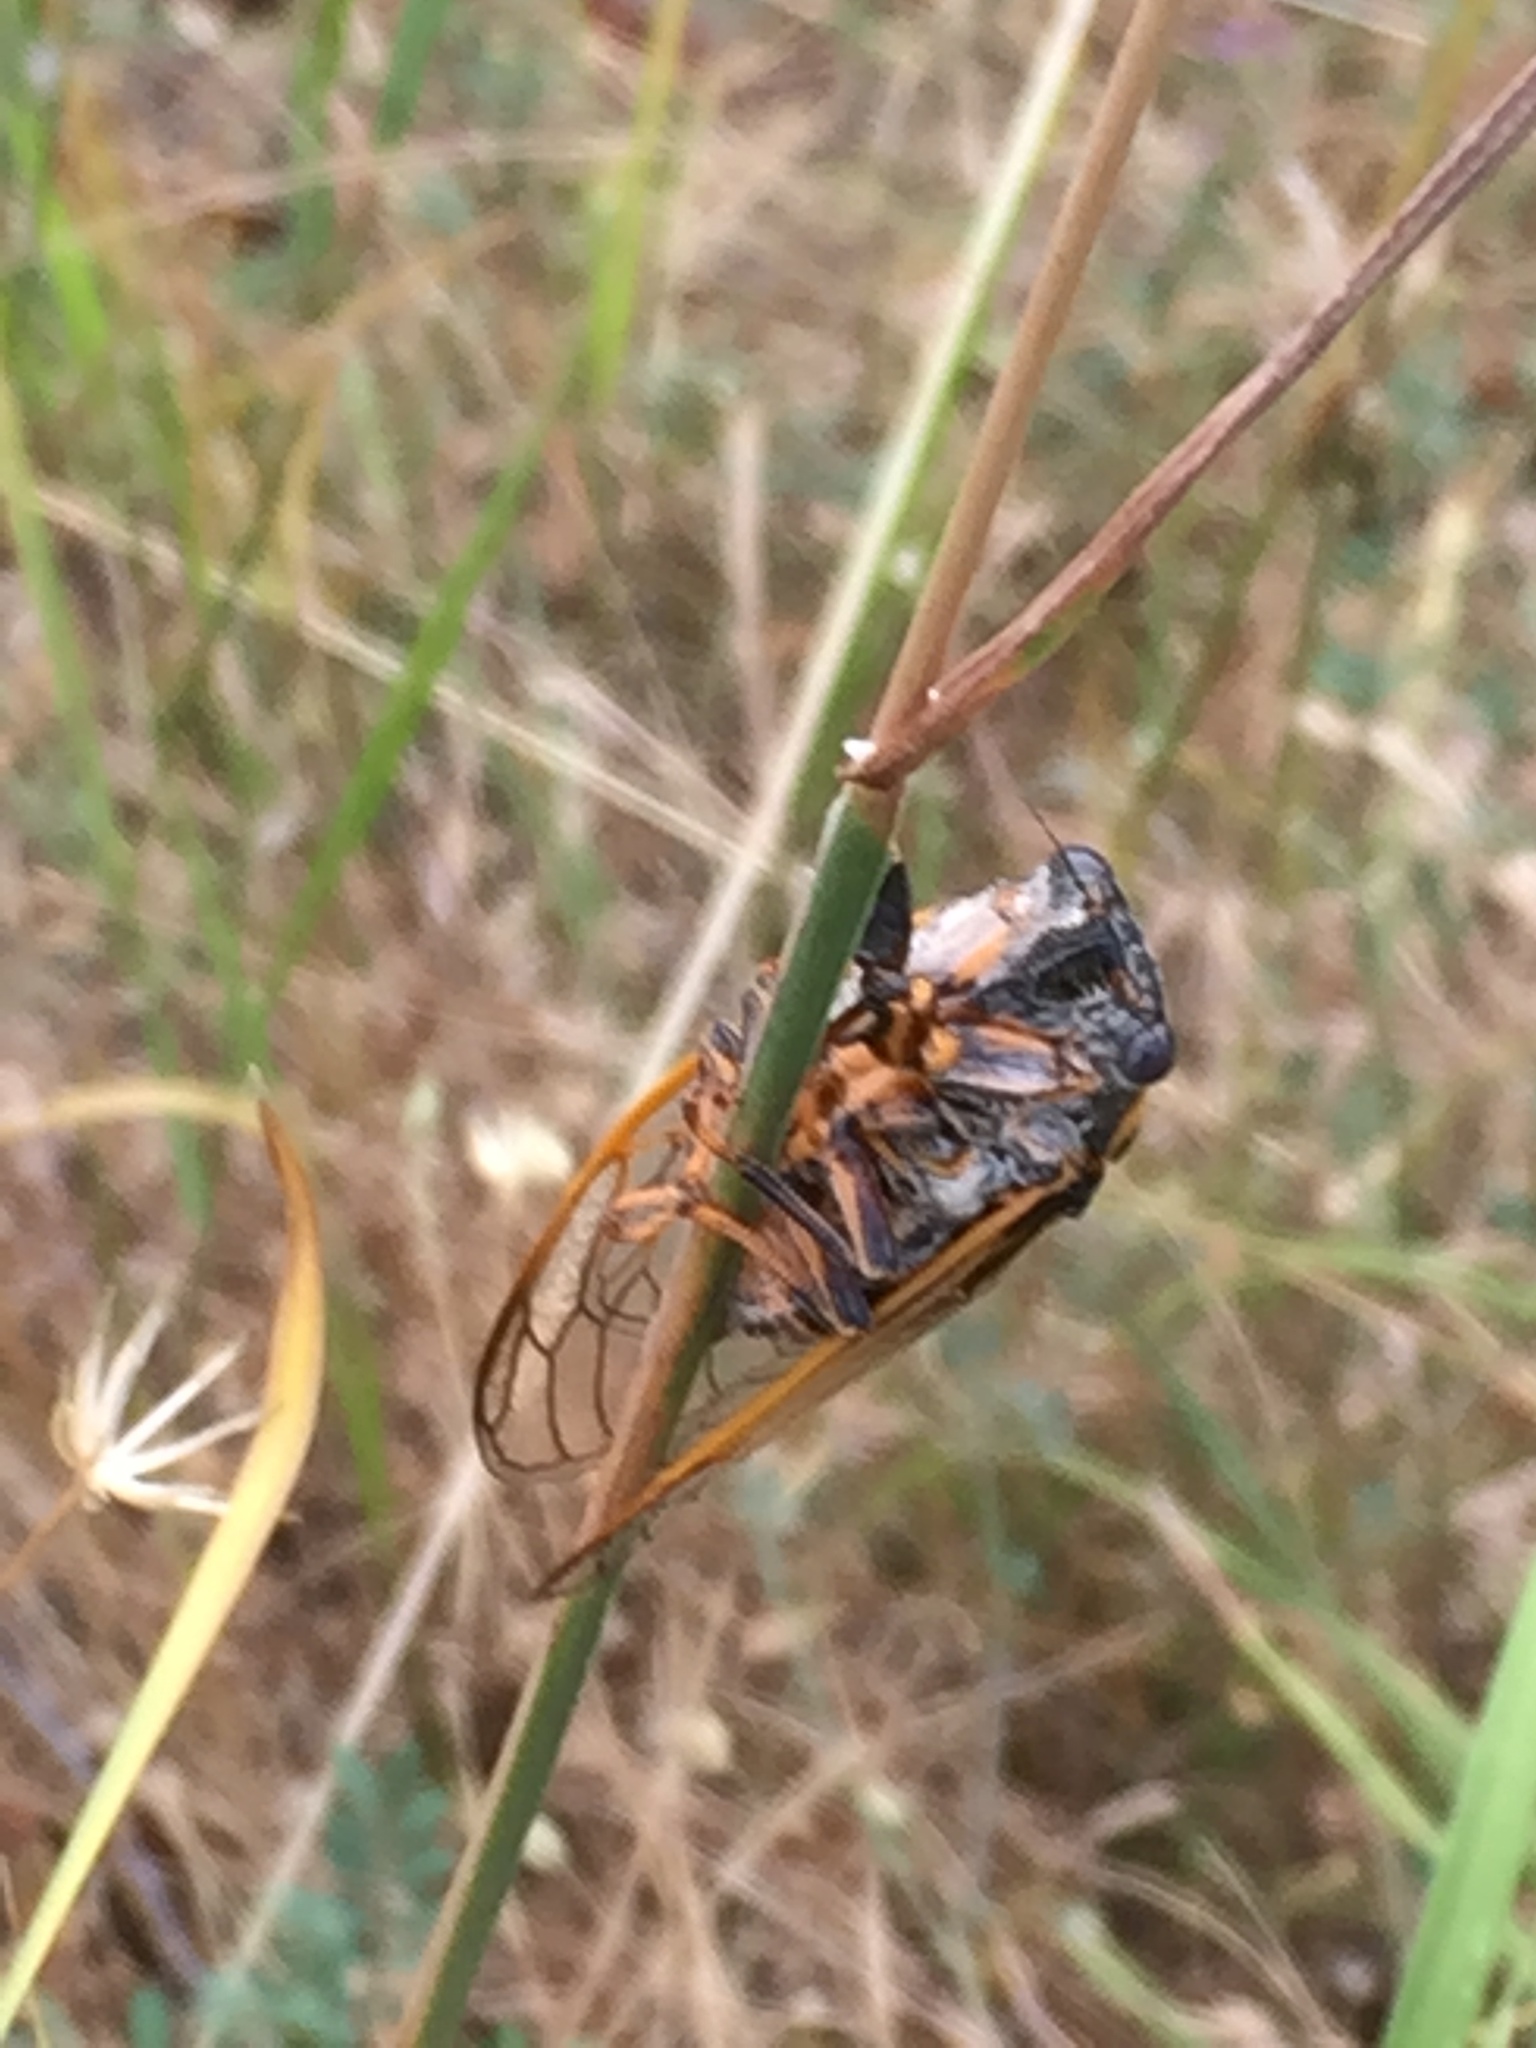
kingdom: Animalia
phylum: Arthropoda
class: Insecta
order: Hemiptera
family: Cicadidae
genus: Tibicina
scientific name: Tibicina steveni
